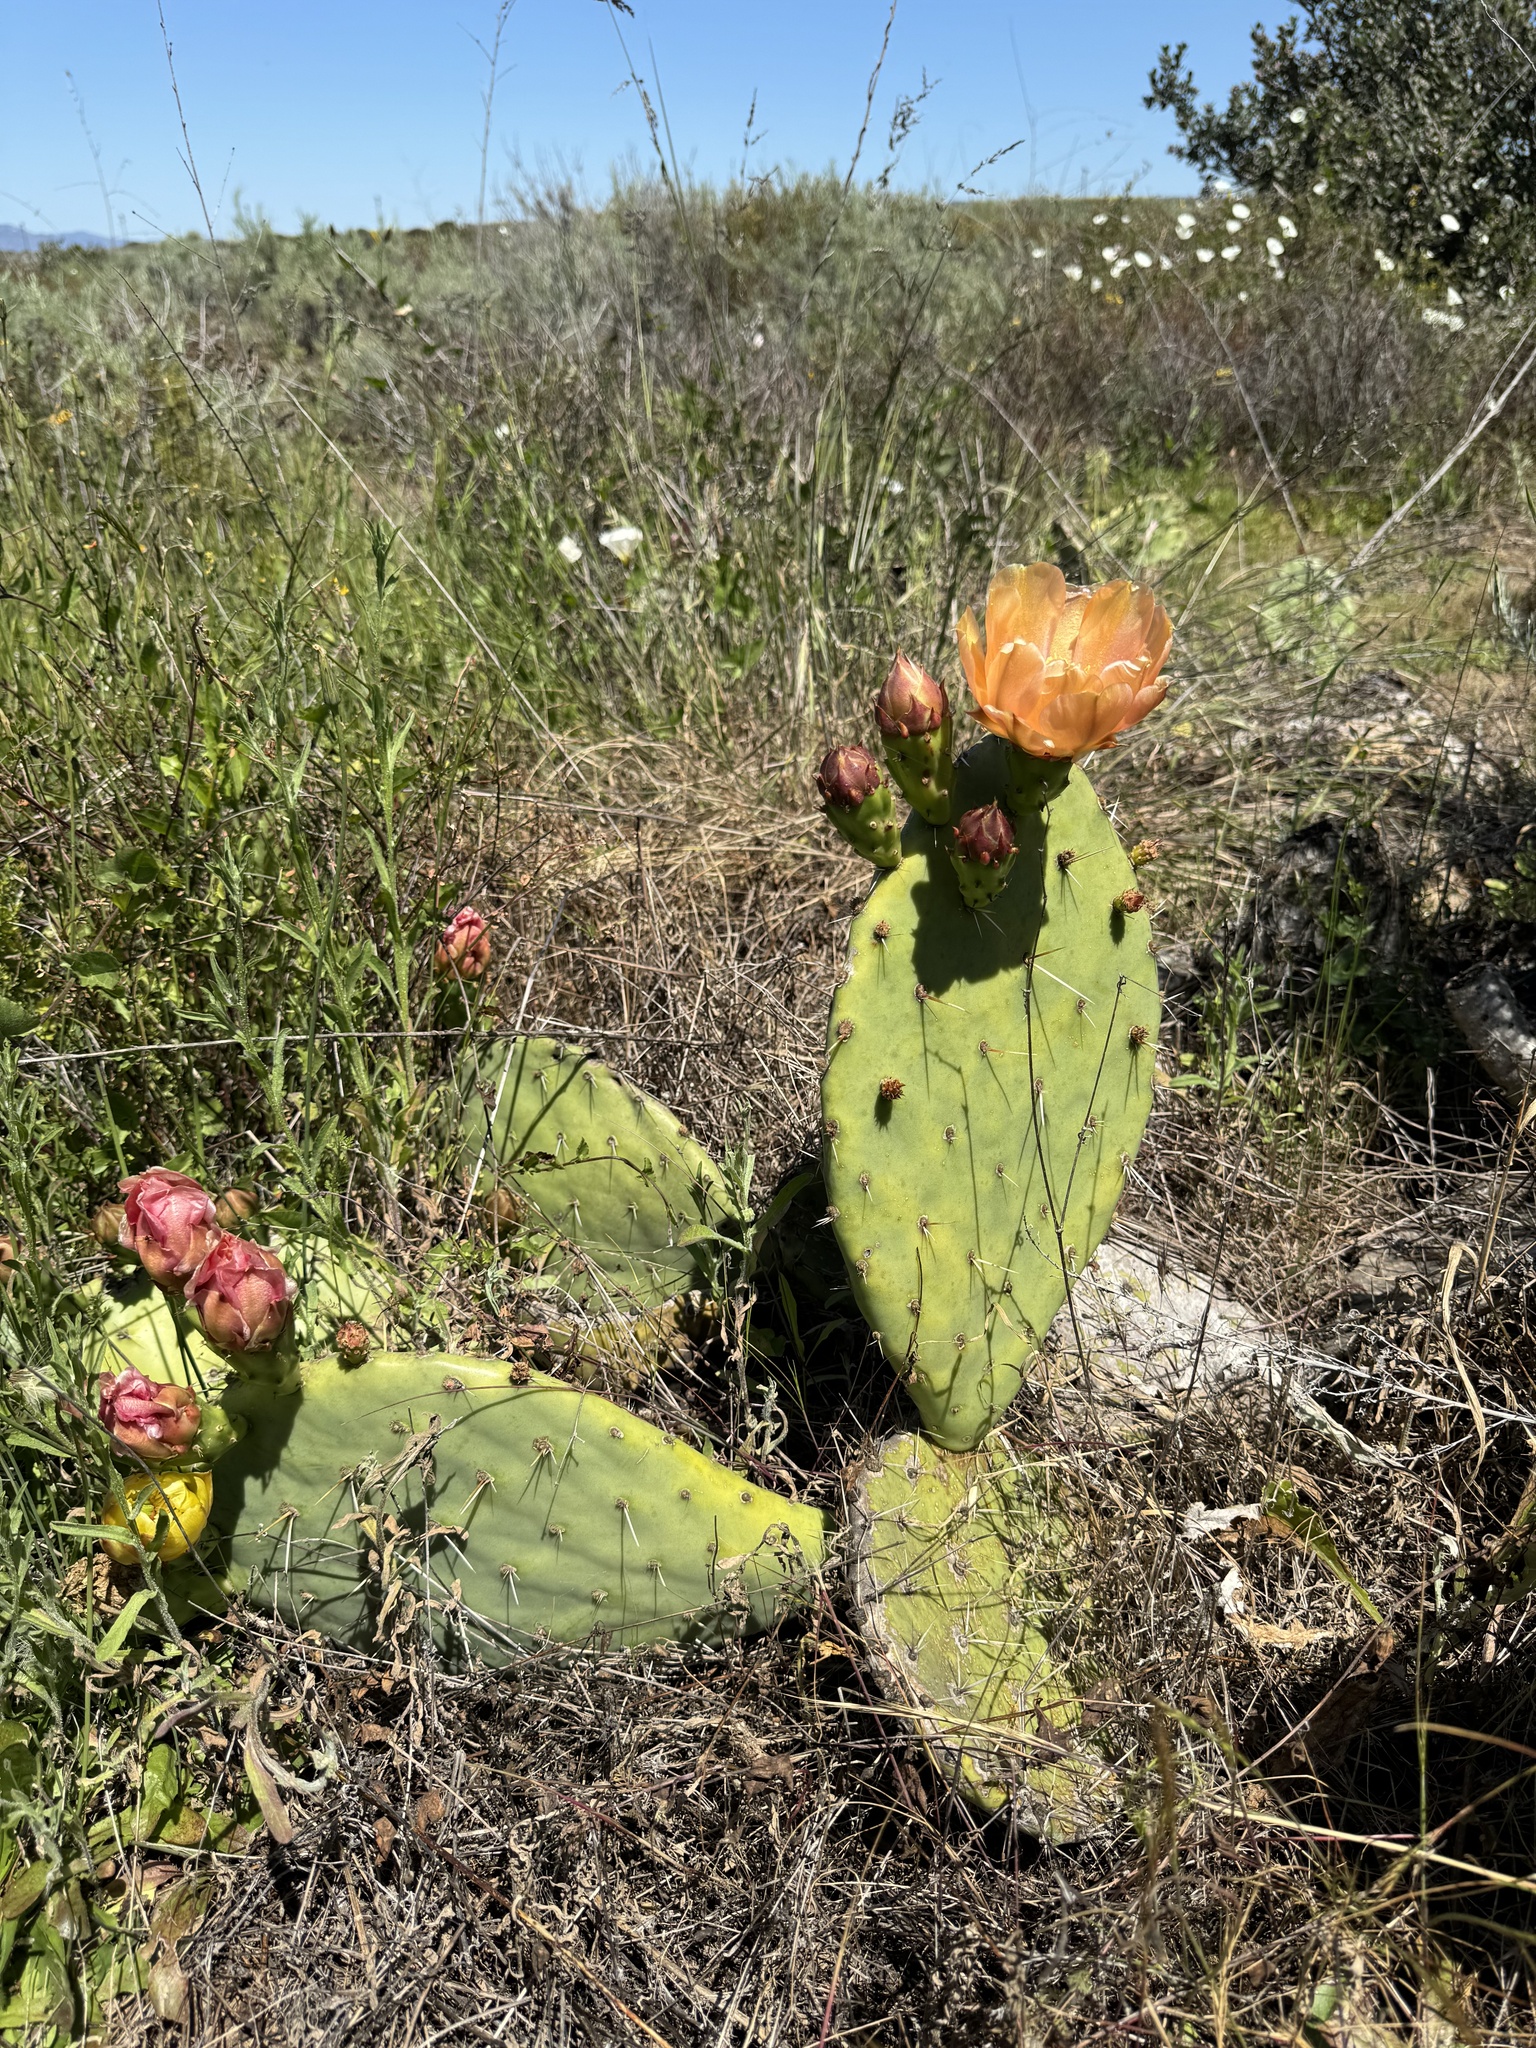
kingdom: Plantae
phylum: Tracheophyta
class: Magnoliopsida
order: Caryophyllales
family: Cactaceae
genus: Opuntia
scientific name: Opuntia littoralis
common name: Coastal prickly-pear
